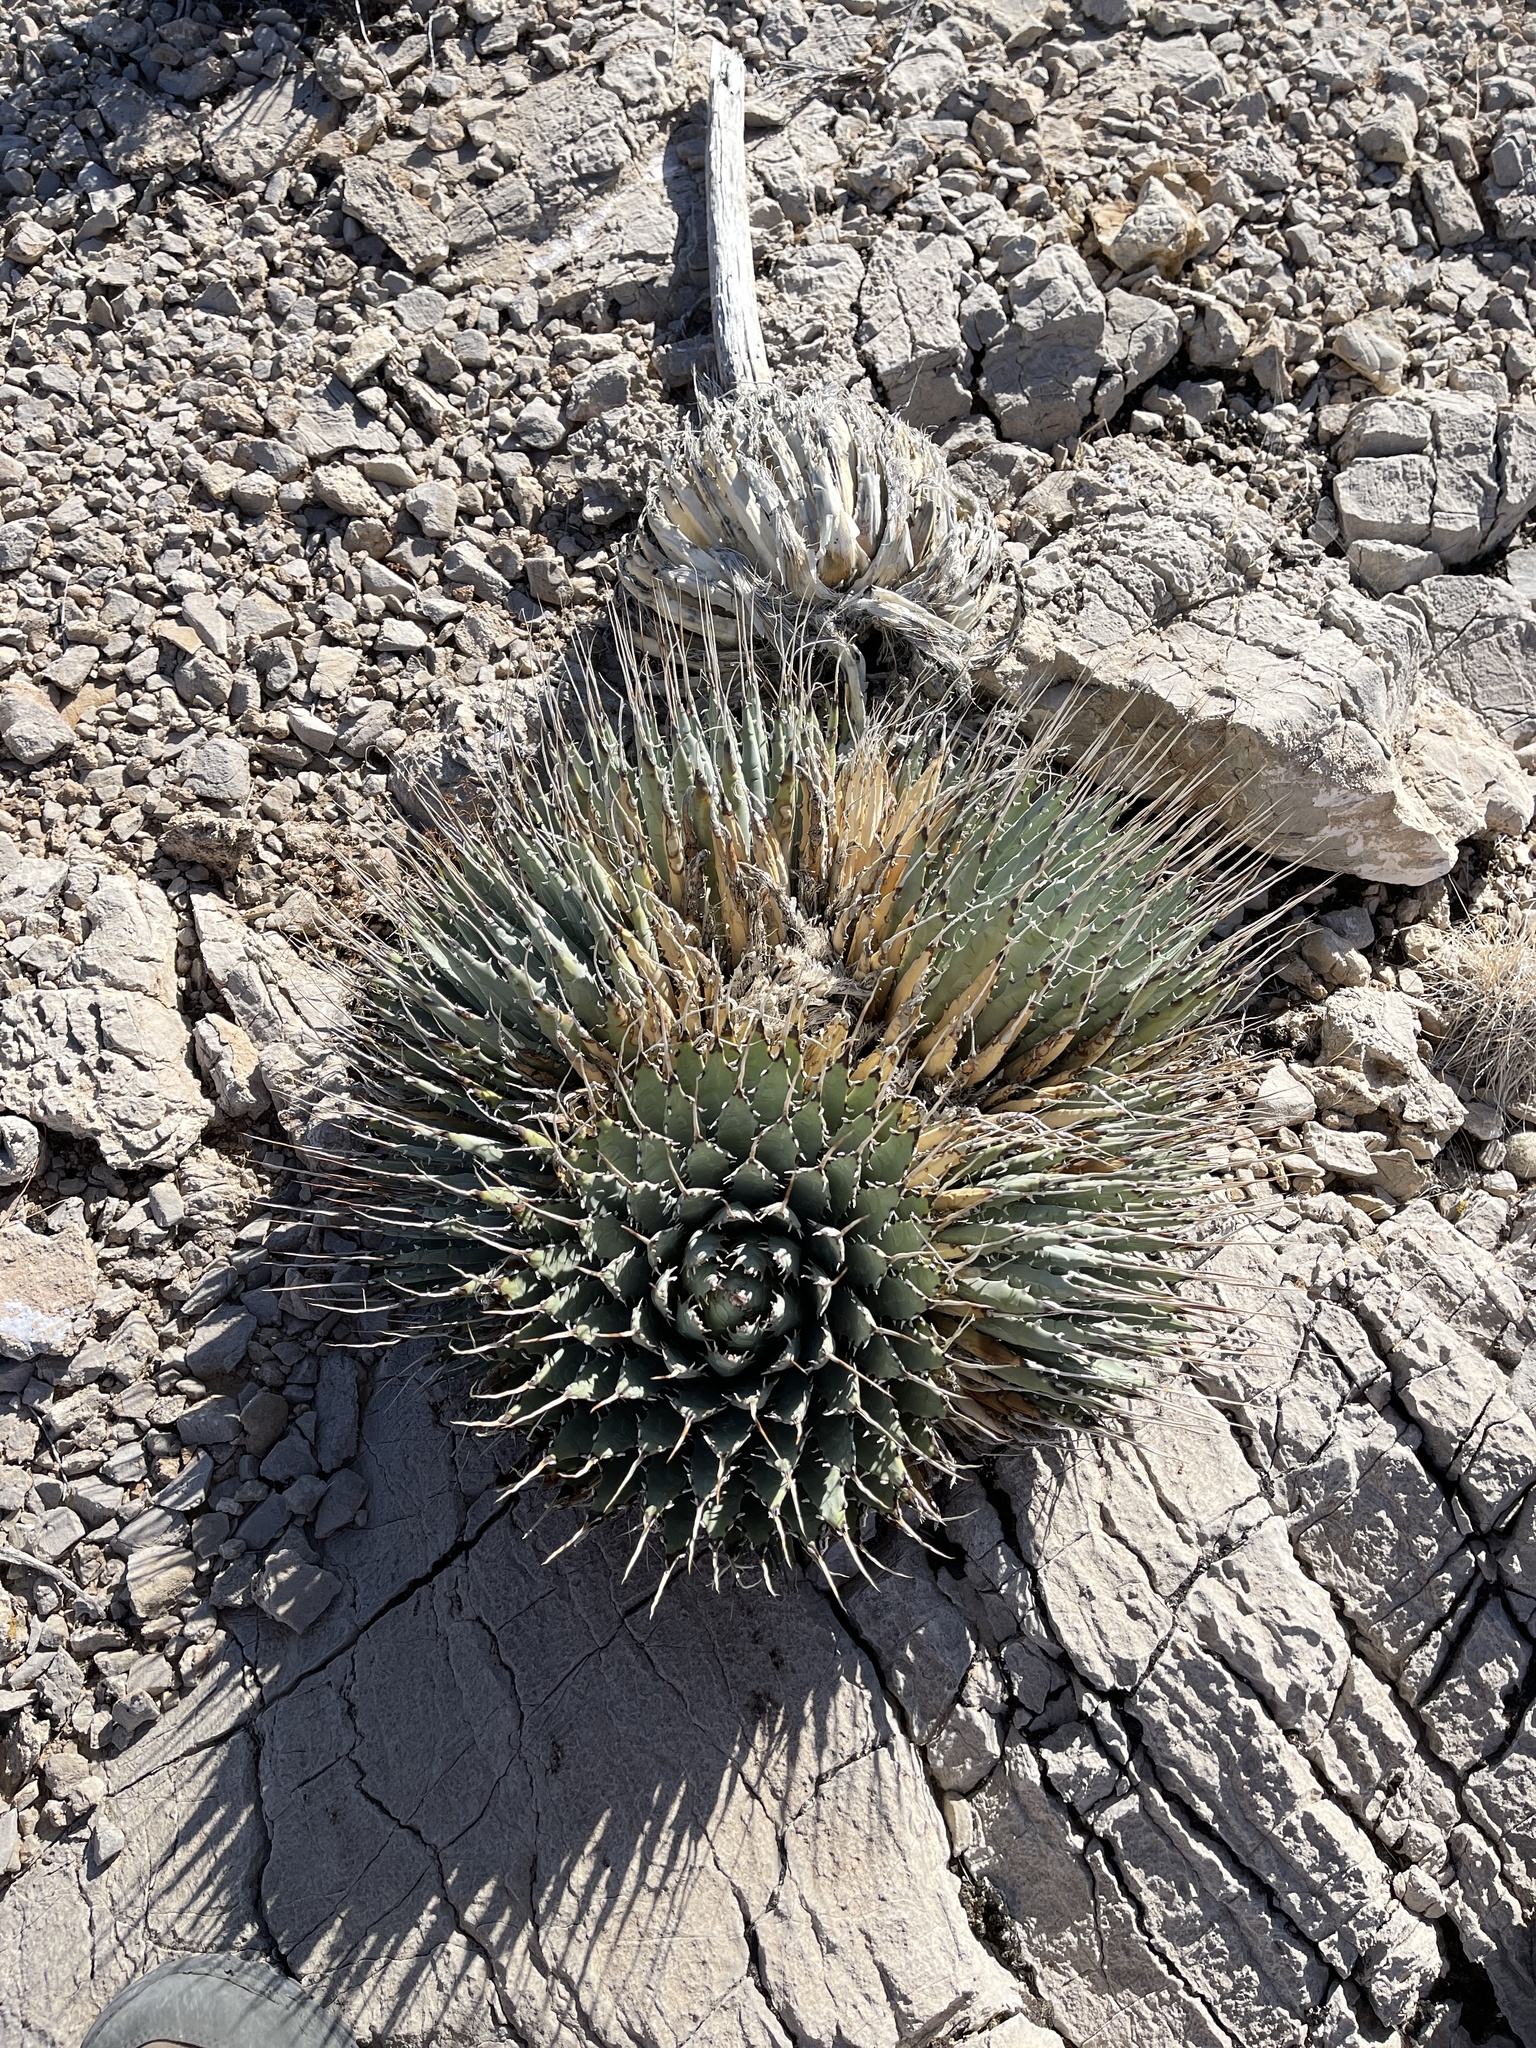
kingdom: Plantae
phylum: Tracheophyta
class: Liliopsida
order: Asparagales
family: Asparagaceae
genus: Agave
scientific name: Agave utahensis
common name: Utah agave
